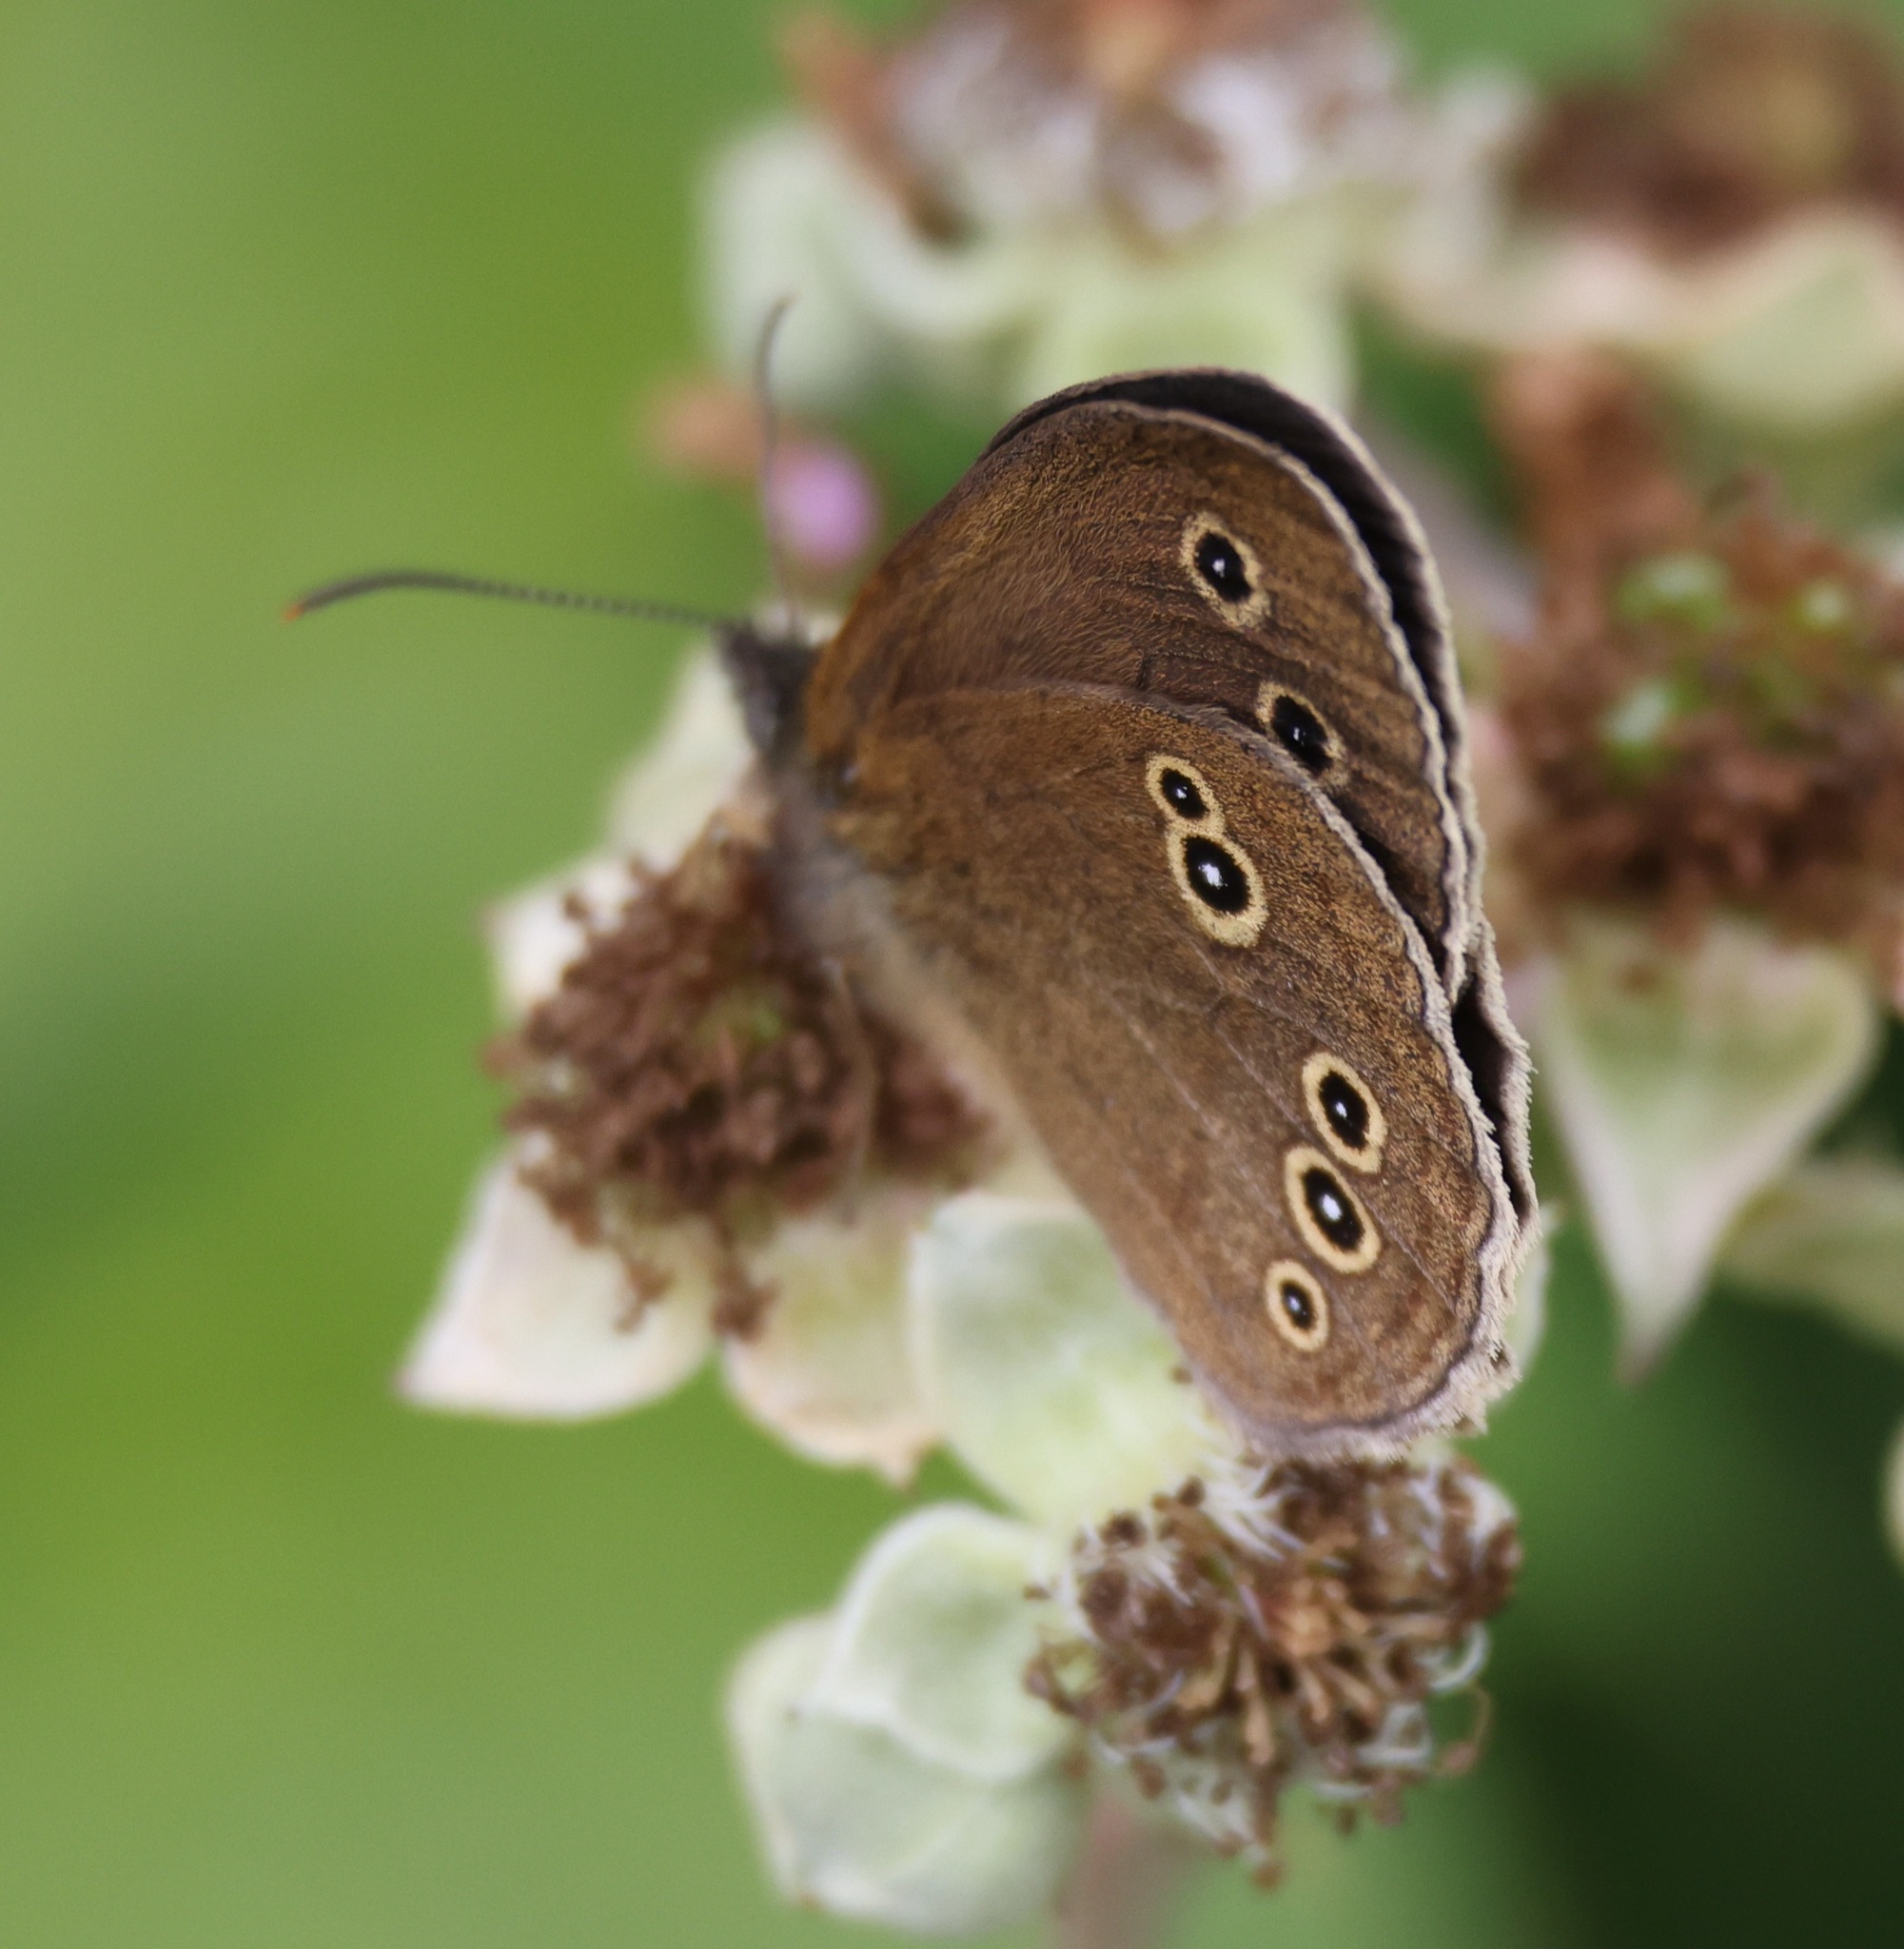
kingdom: Animalia
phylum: Arthropoda
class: Insecta
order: Lepidoptera
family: Nymphalidae
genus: Aphantopus
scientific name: Aphantopus hyperantus
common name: Ringlet
